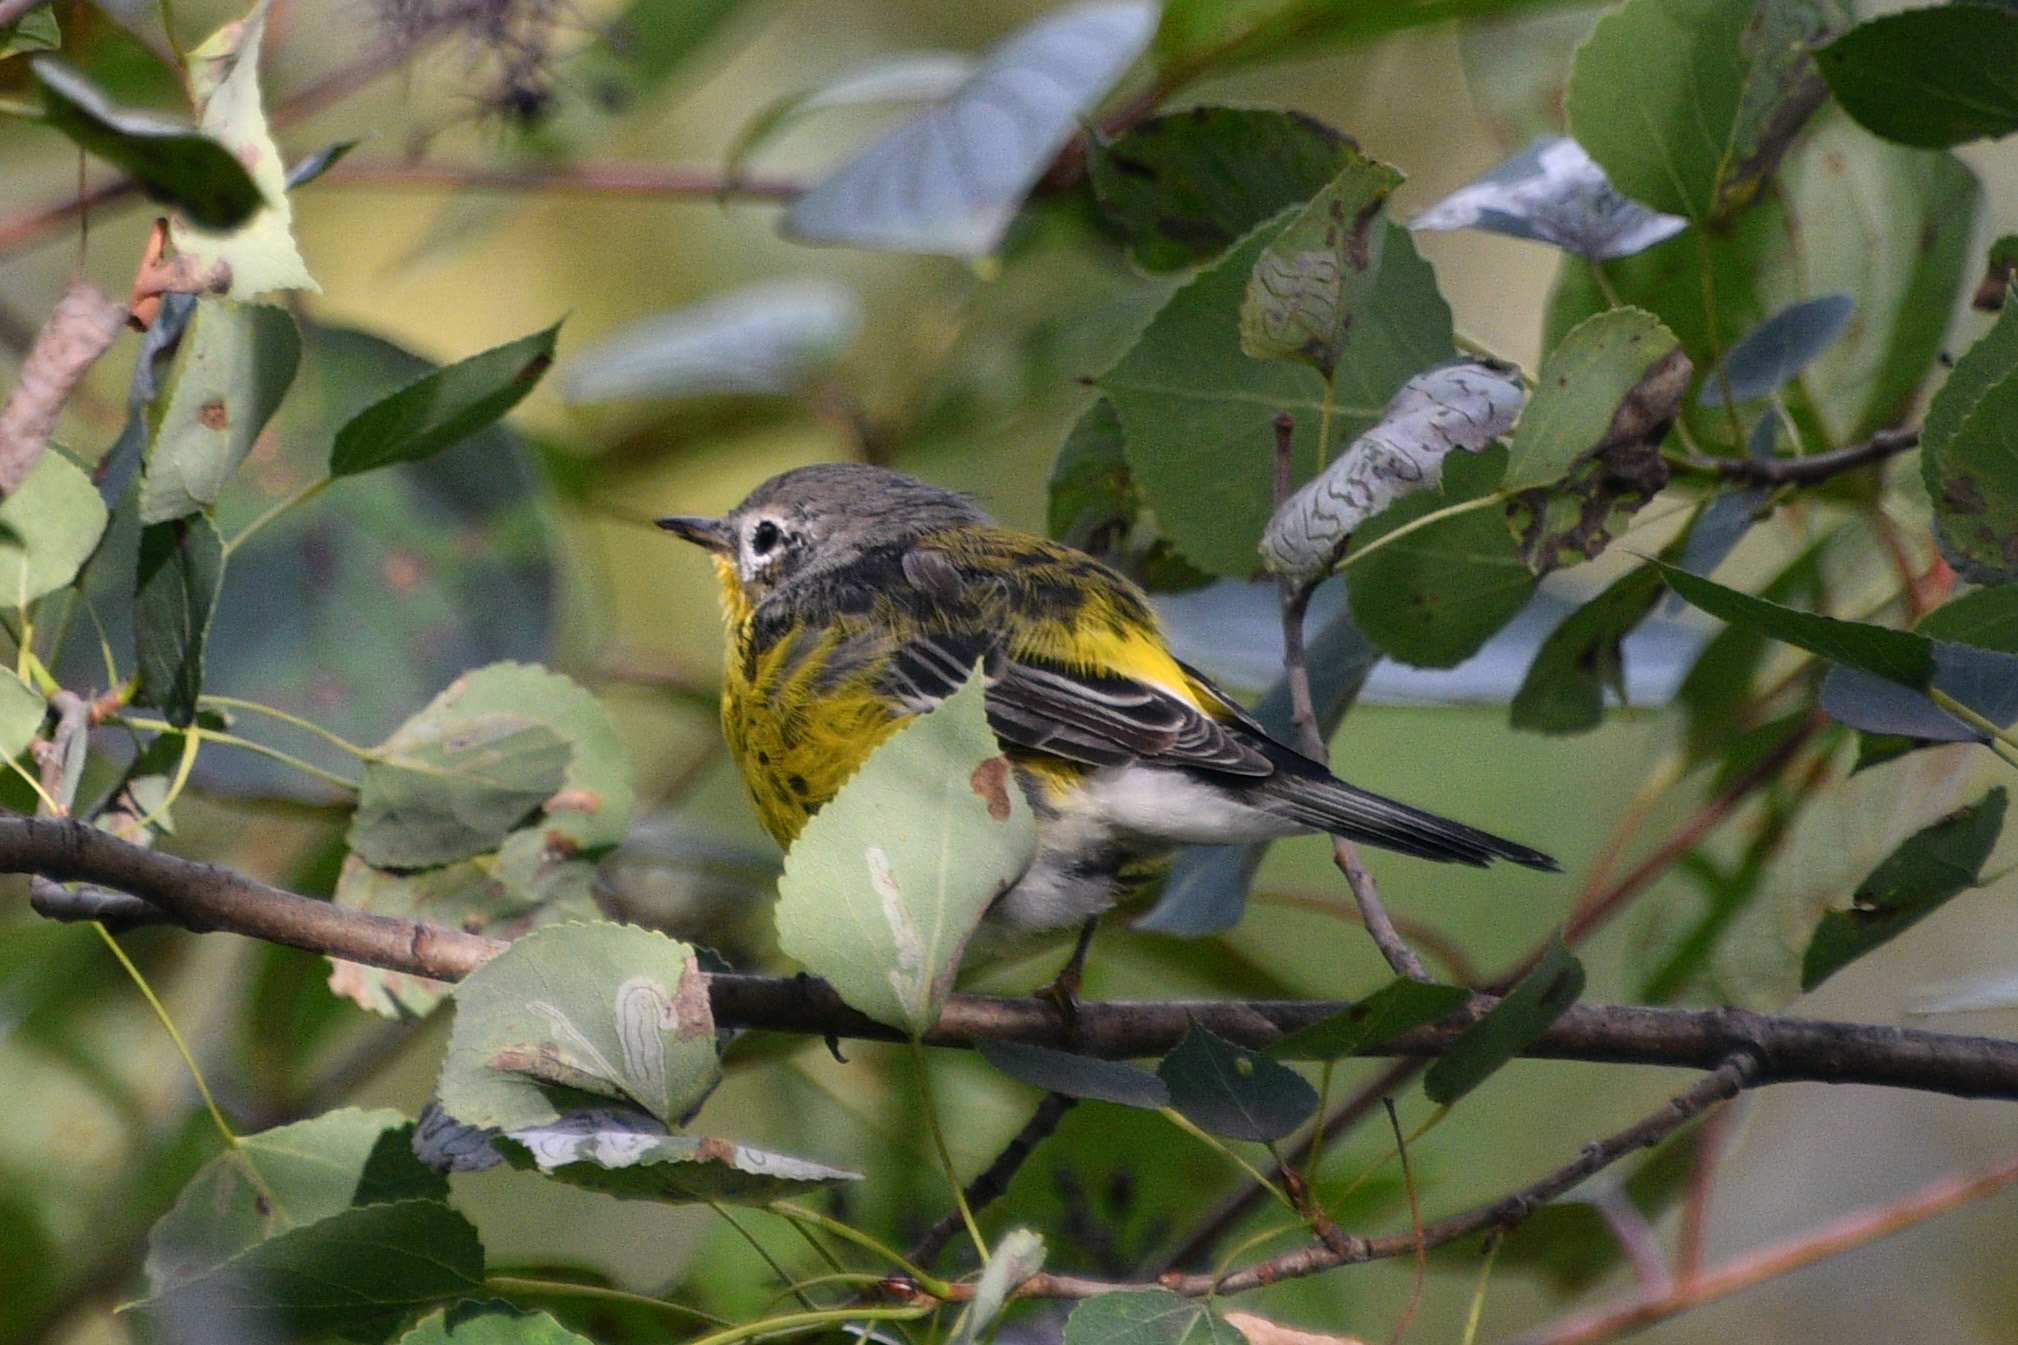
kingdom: Animalia
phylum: Chordata
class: Aves
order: Passeriformes
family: Parulidae
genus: Setophaga
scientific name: Setophaga magnolia
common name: Magnolia warbler
